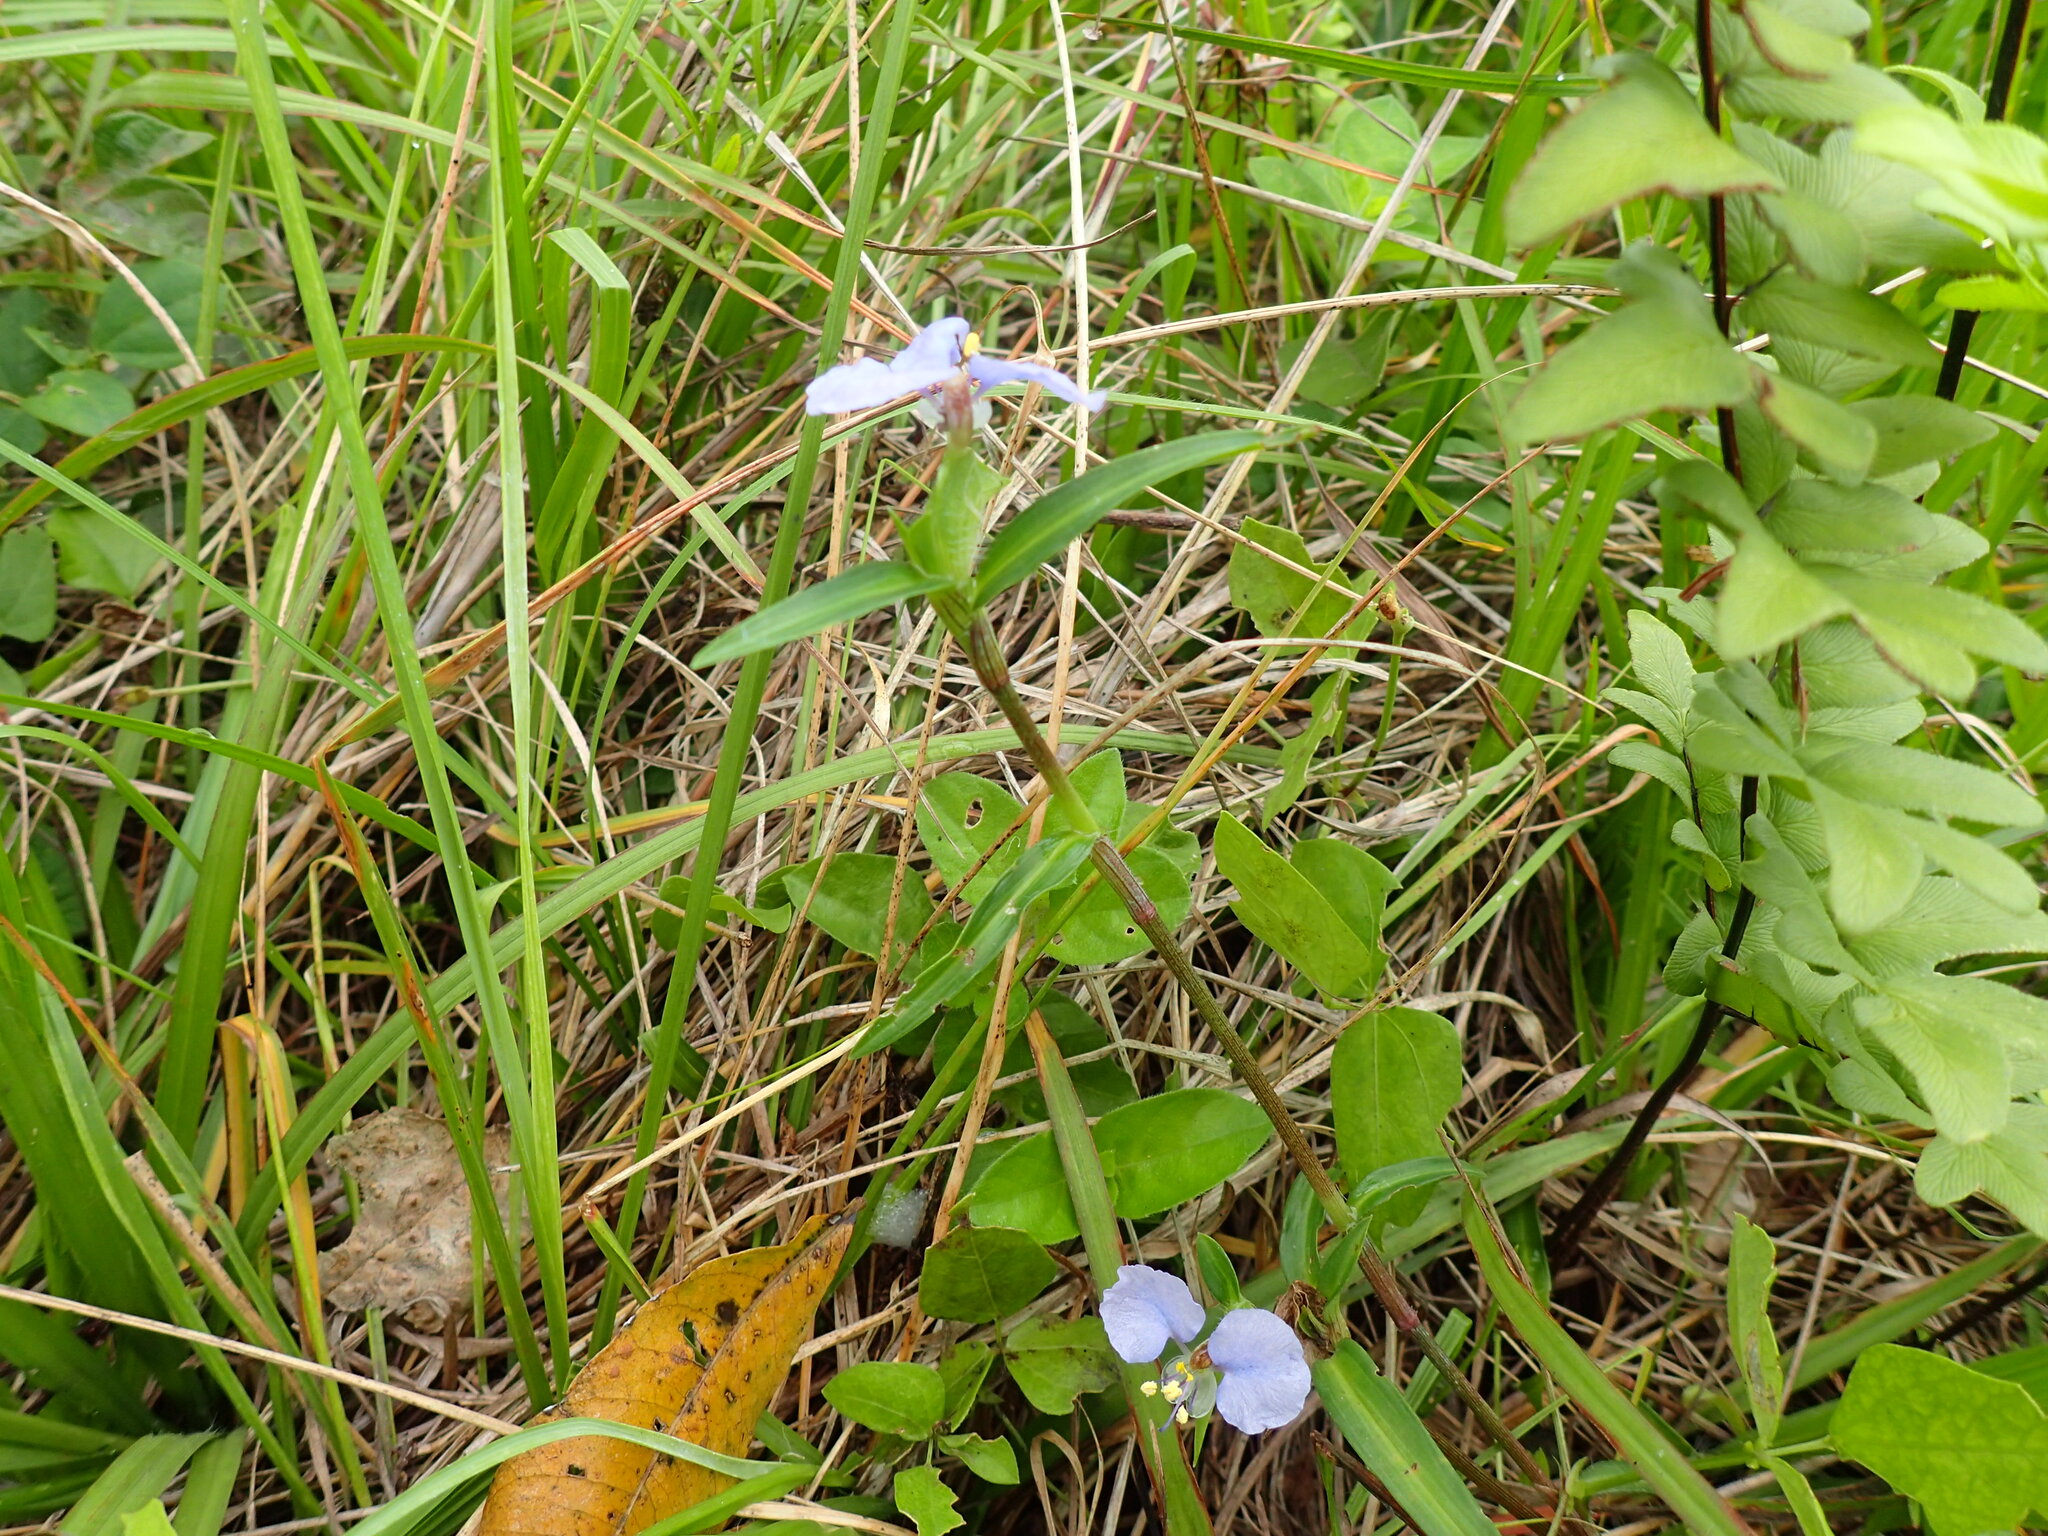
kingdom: Plantae
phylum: Tracheophyta
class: Liliopsida
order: Commelinales
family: Commelinaceae
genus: Commelina
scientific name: Commelina benghalensis
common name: Jio
